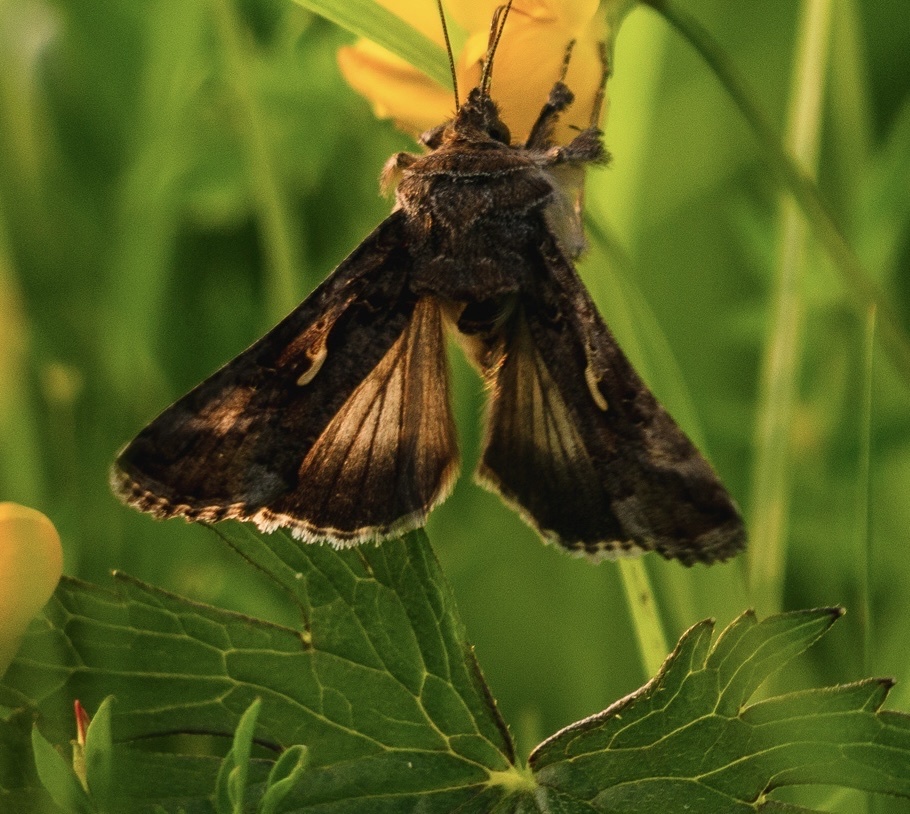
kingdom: Animalia
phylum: Arthropoda
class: Insecta
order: Lepidoptera
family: Noctuidae
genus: Autographa
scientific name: Autographa gamma
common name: Silver y
